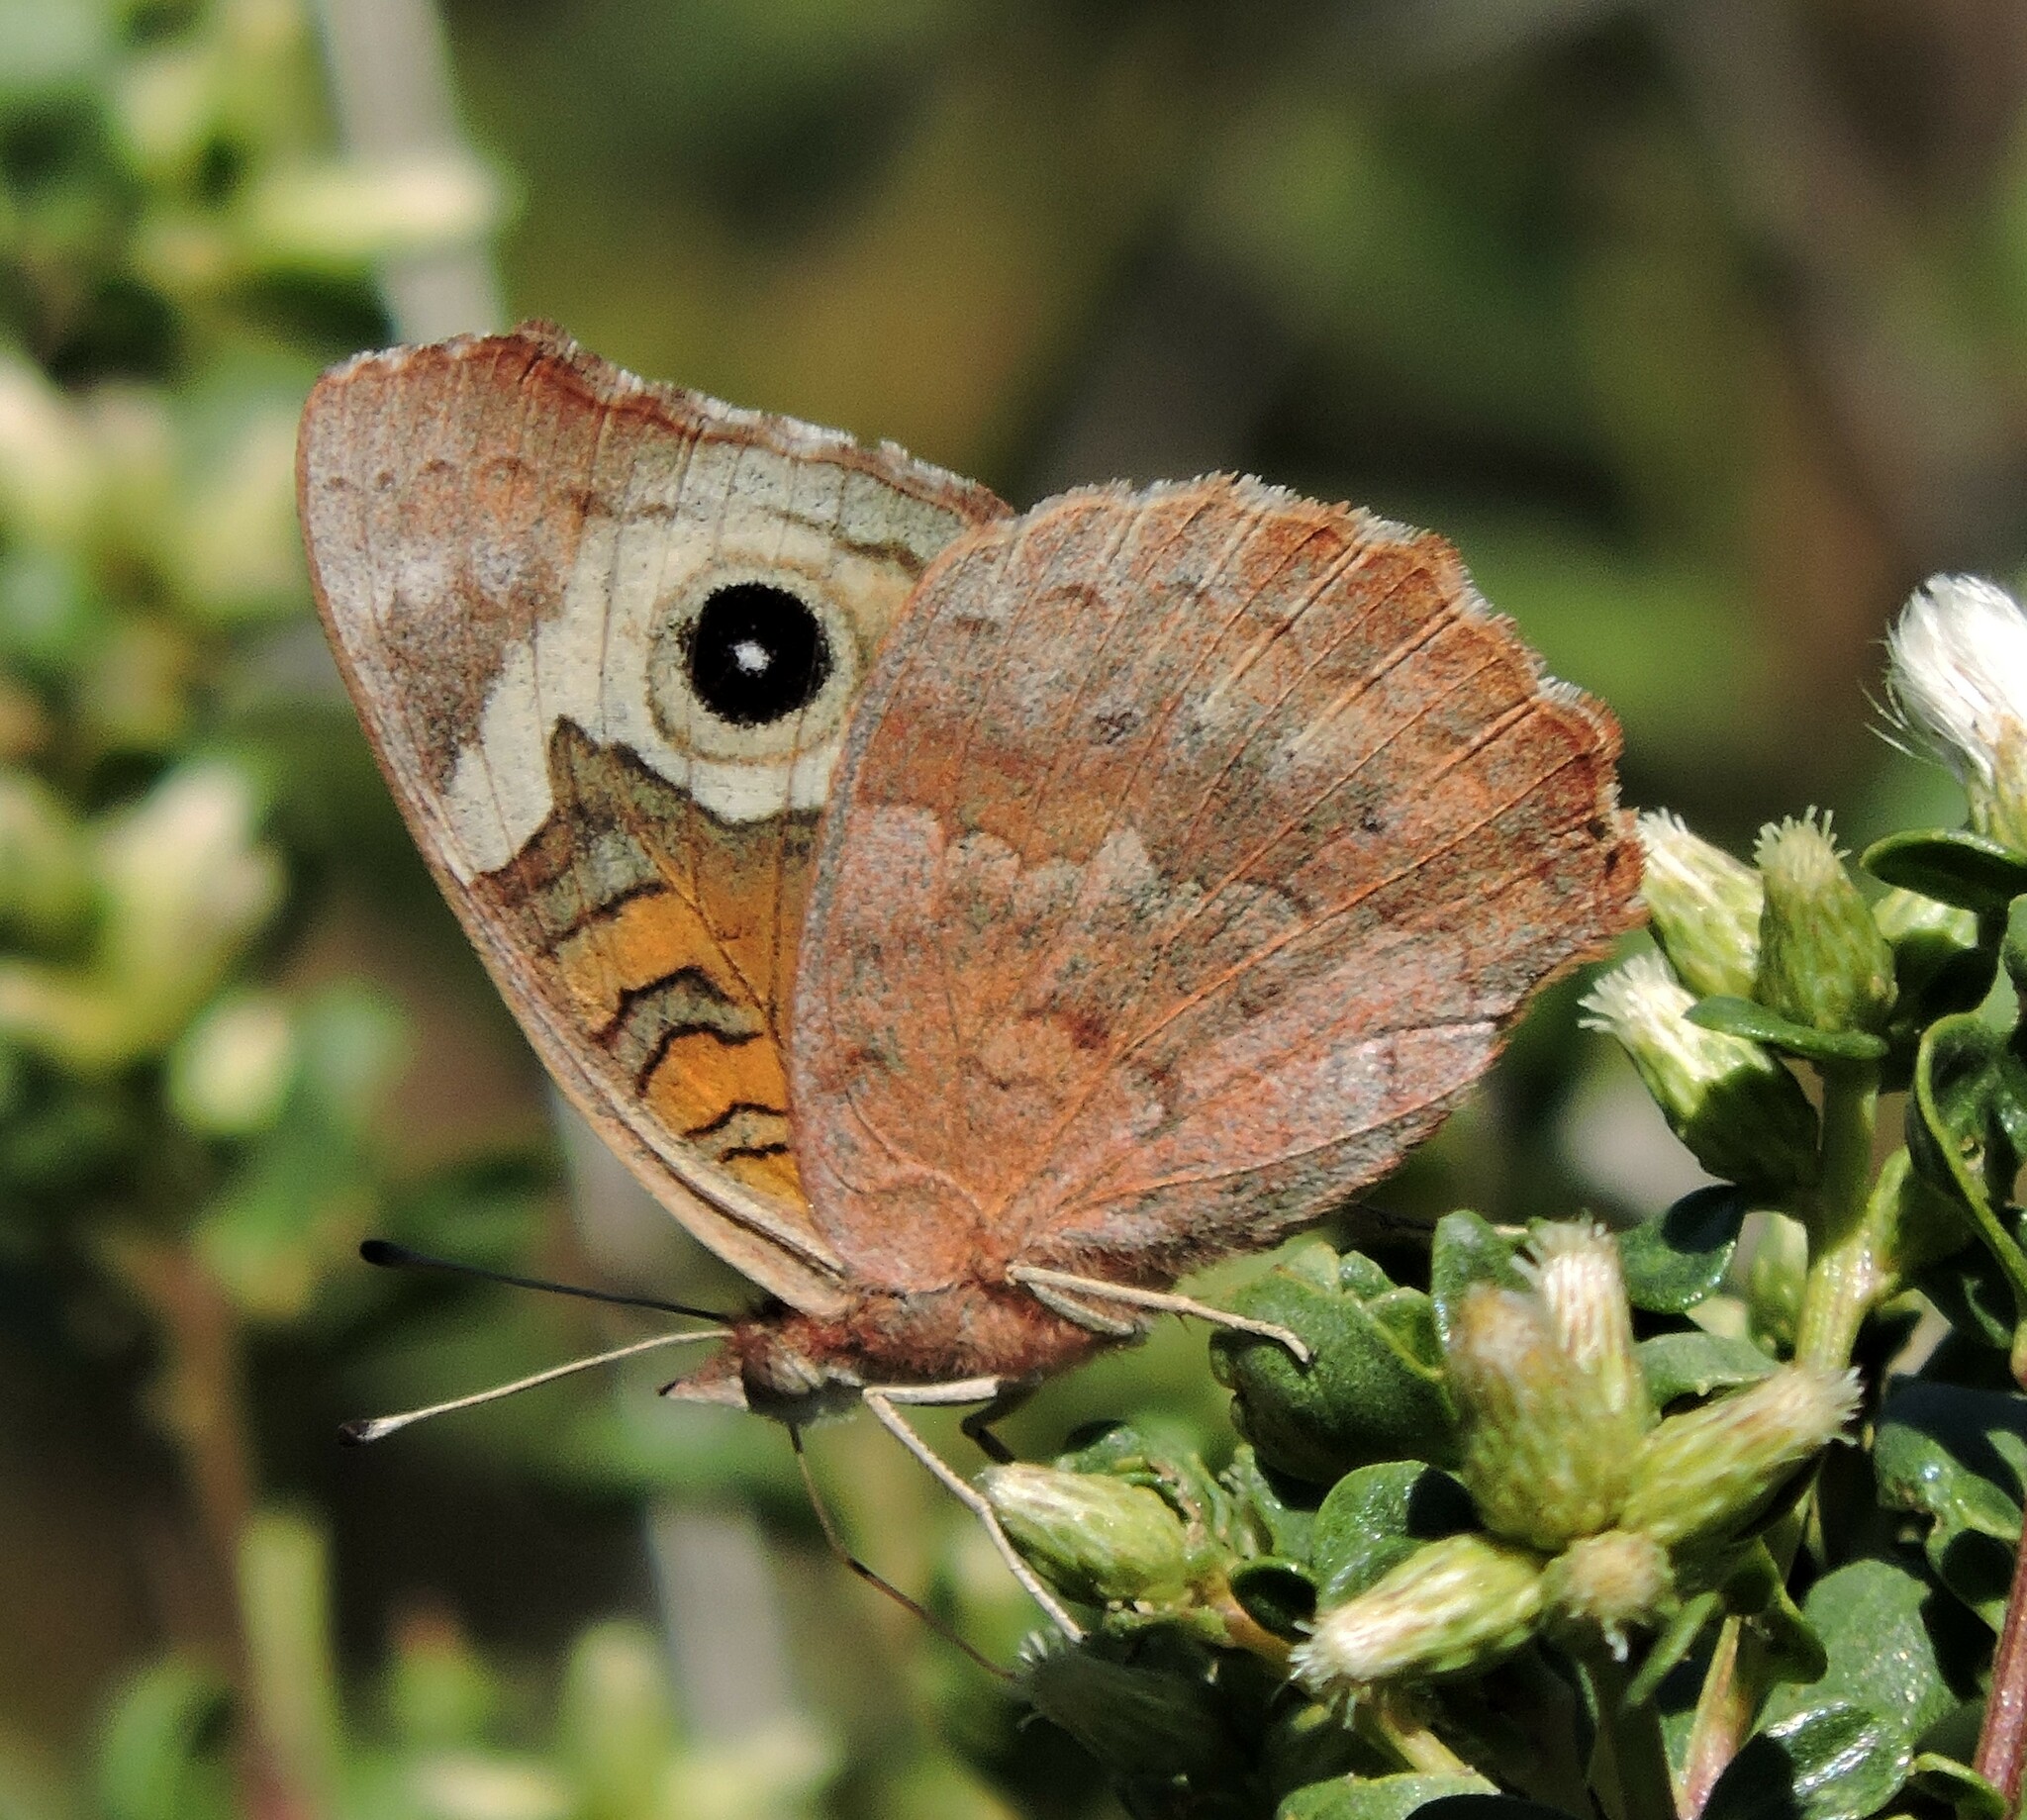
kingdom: Animalia
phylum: Arthropoda
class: Insecta
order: Lepidoptera
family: Nymphalidae
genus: Junonia
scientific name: Junonia grisea
